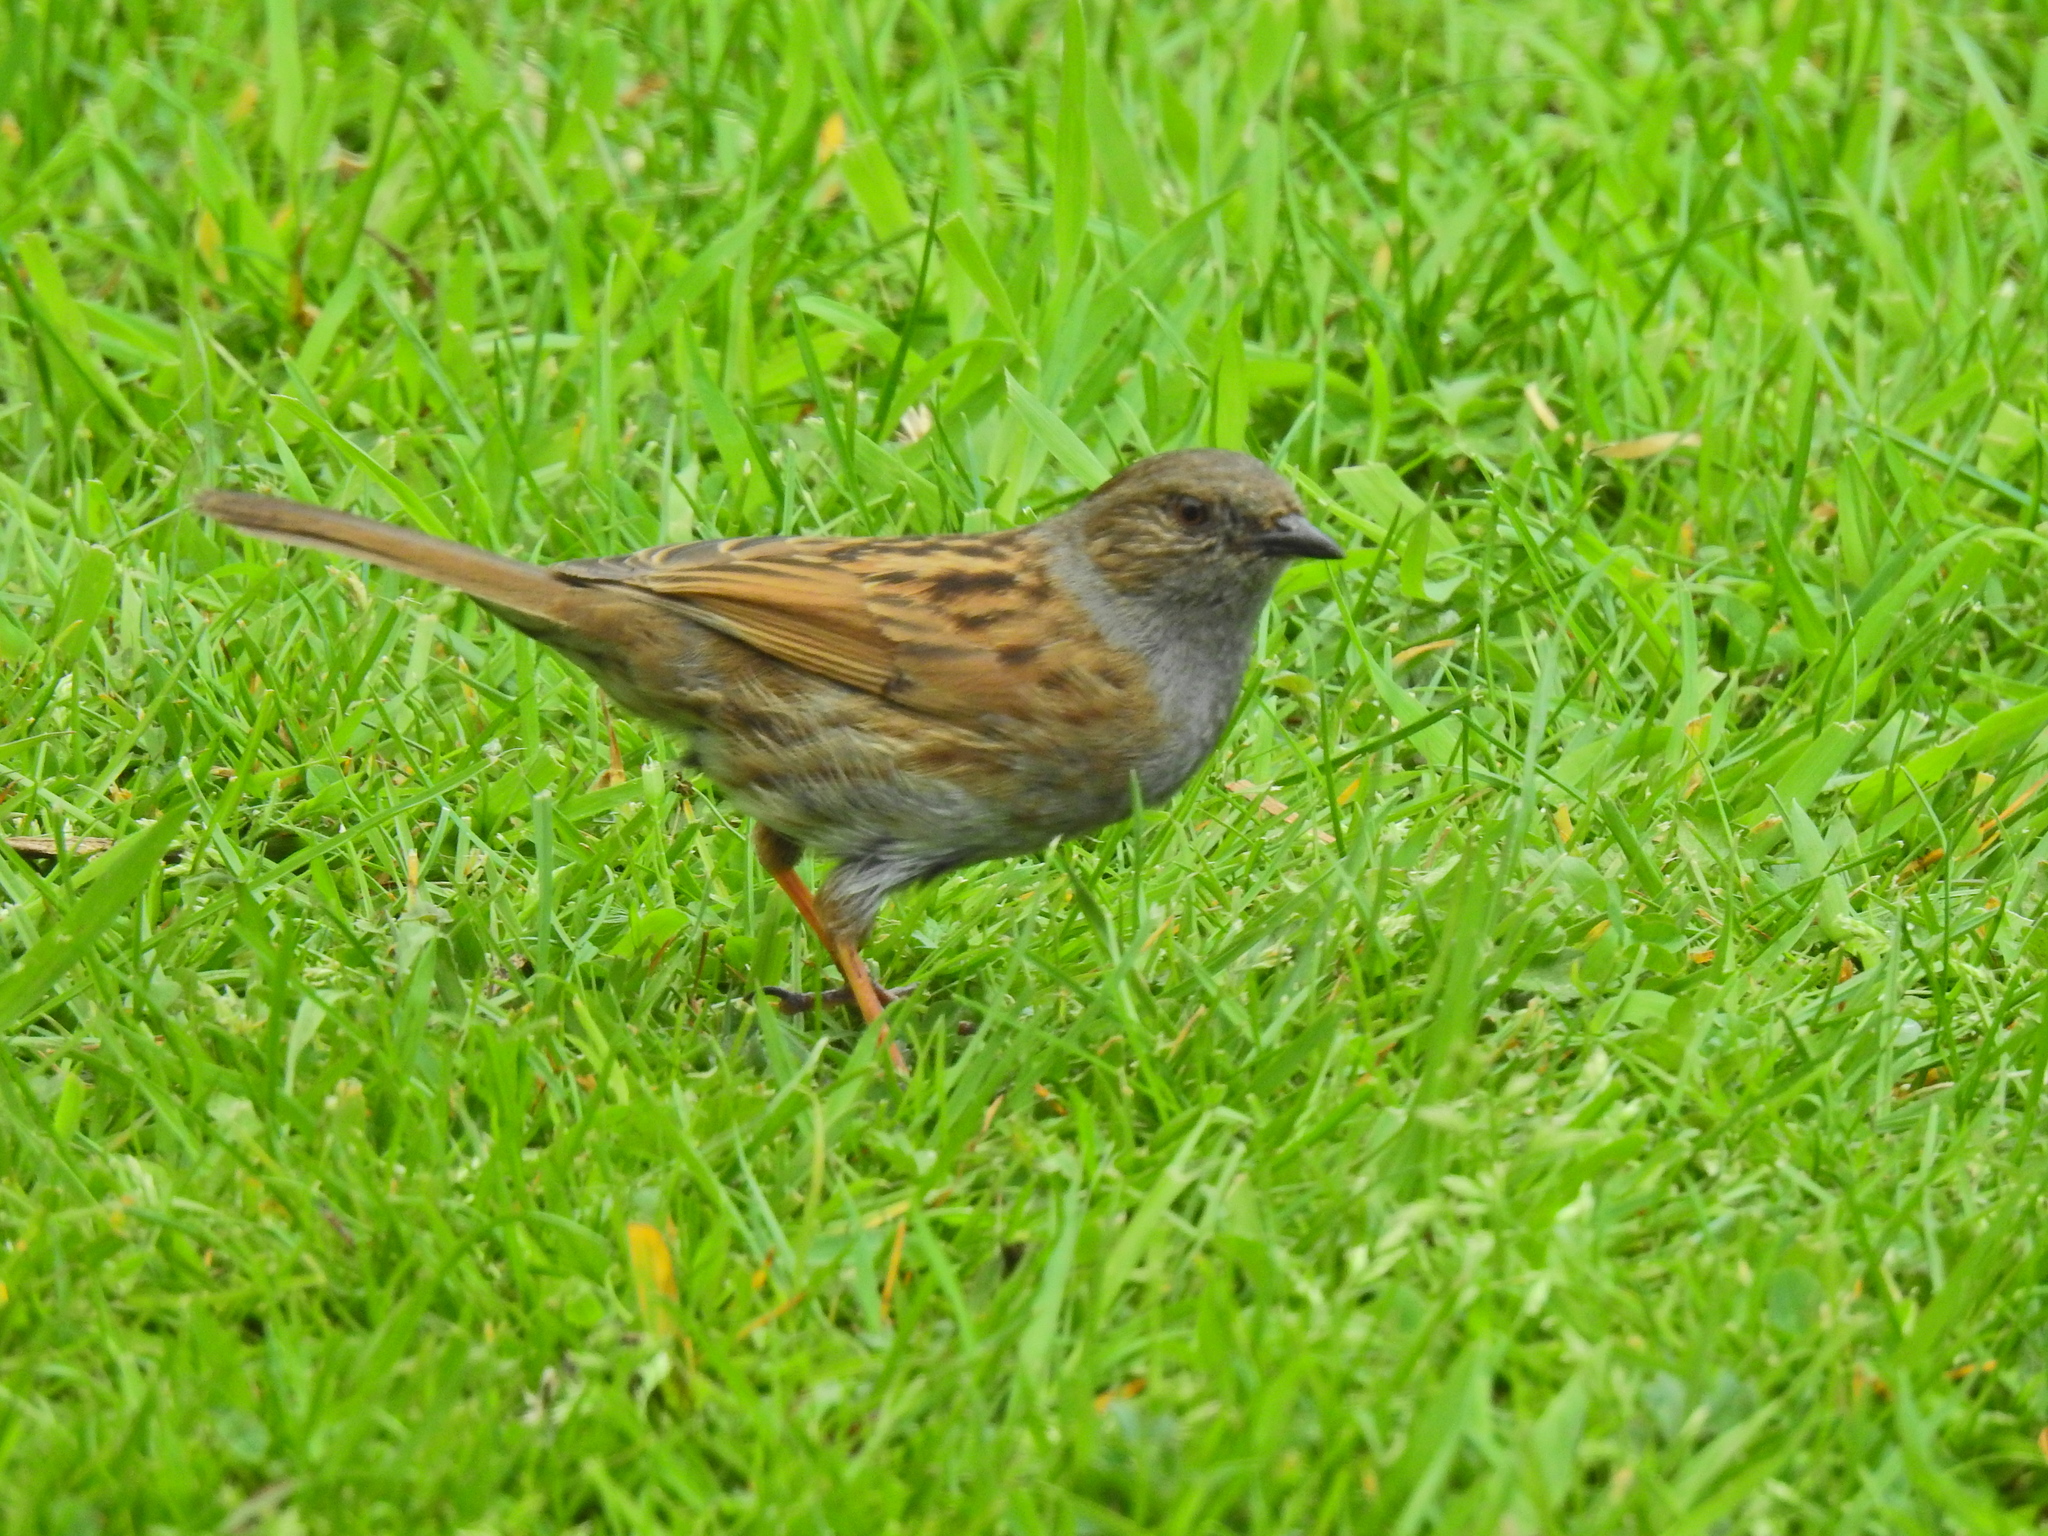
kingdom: Animalia
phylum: Chordata
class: Aves
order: Passeriformes
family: Prunellidae
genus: Prunella
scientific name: Prunella modularis
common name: Dunnock
